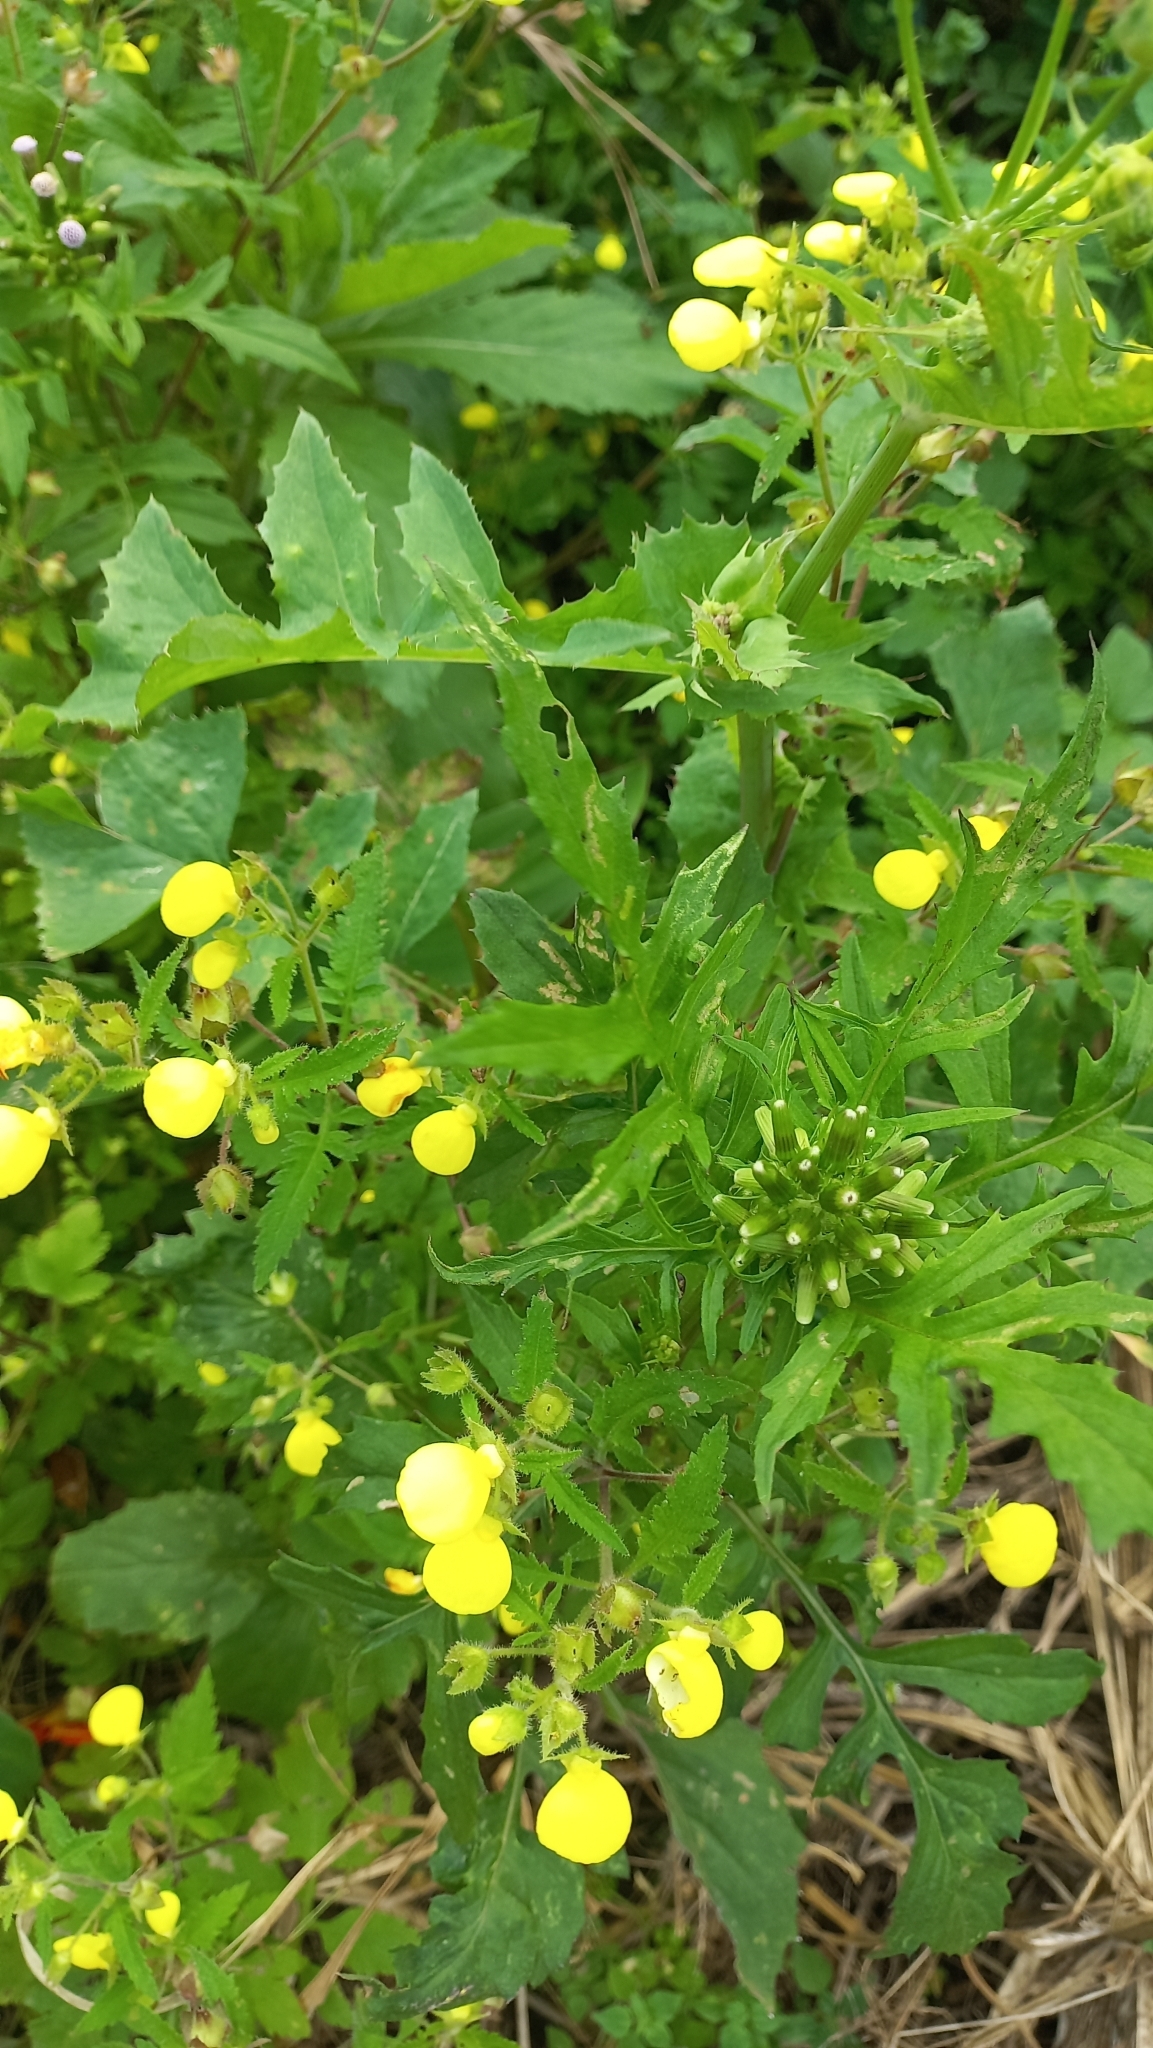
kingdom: Plantae
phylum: Tracheophyta
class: Magnoliopsida
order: Lamiales
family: Calceolariaceae
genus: Calceolaria
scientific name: Calceolaria tripartita
